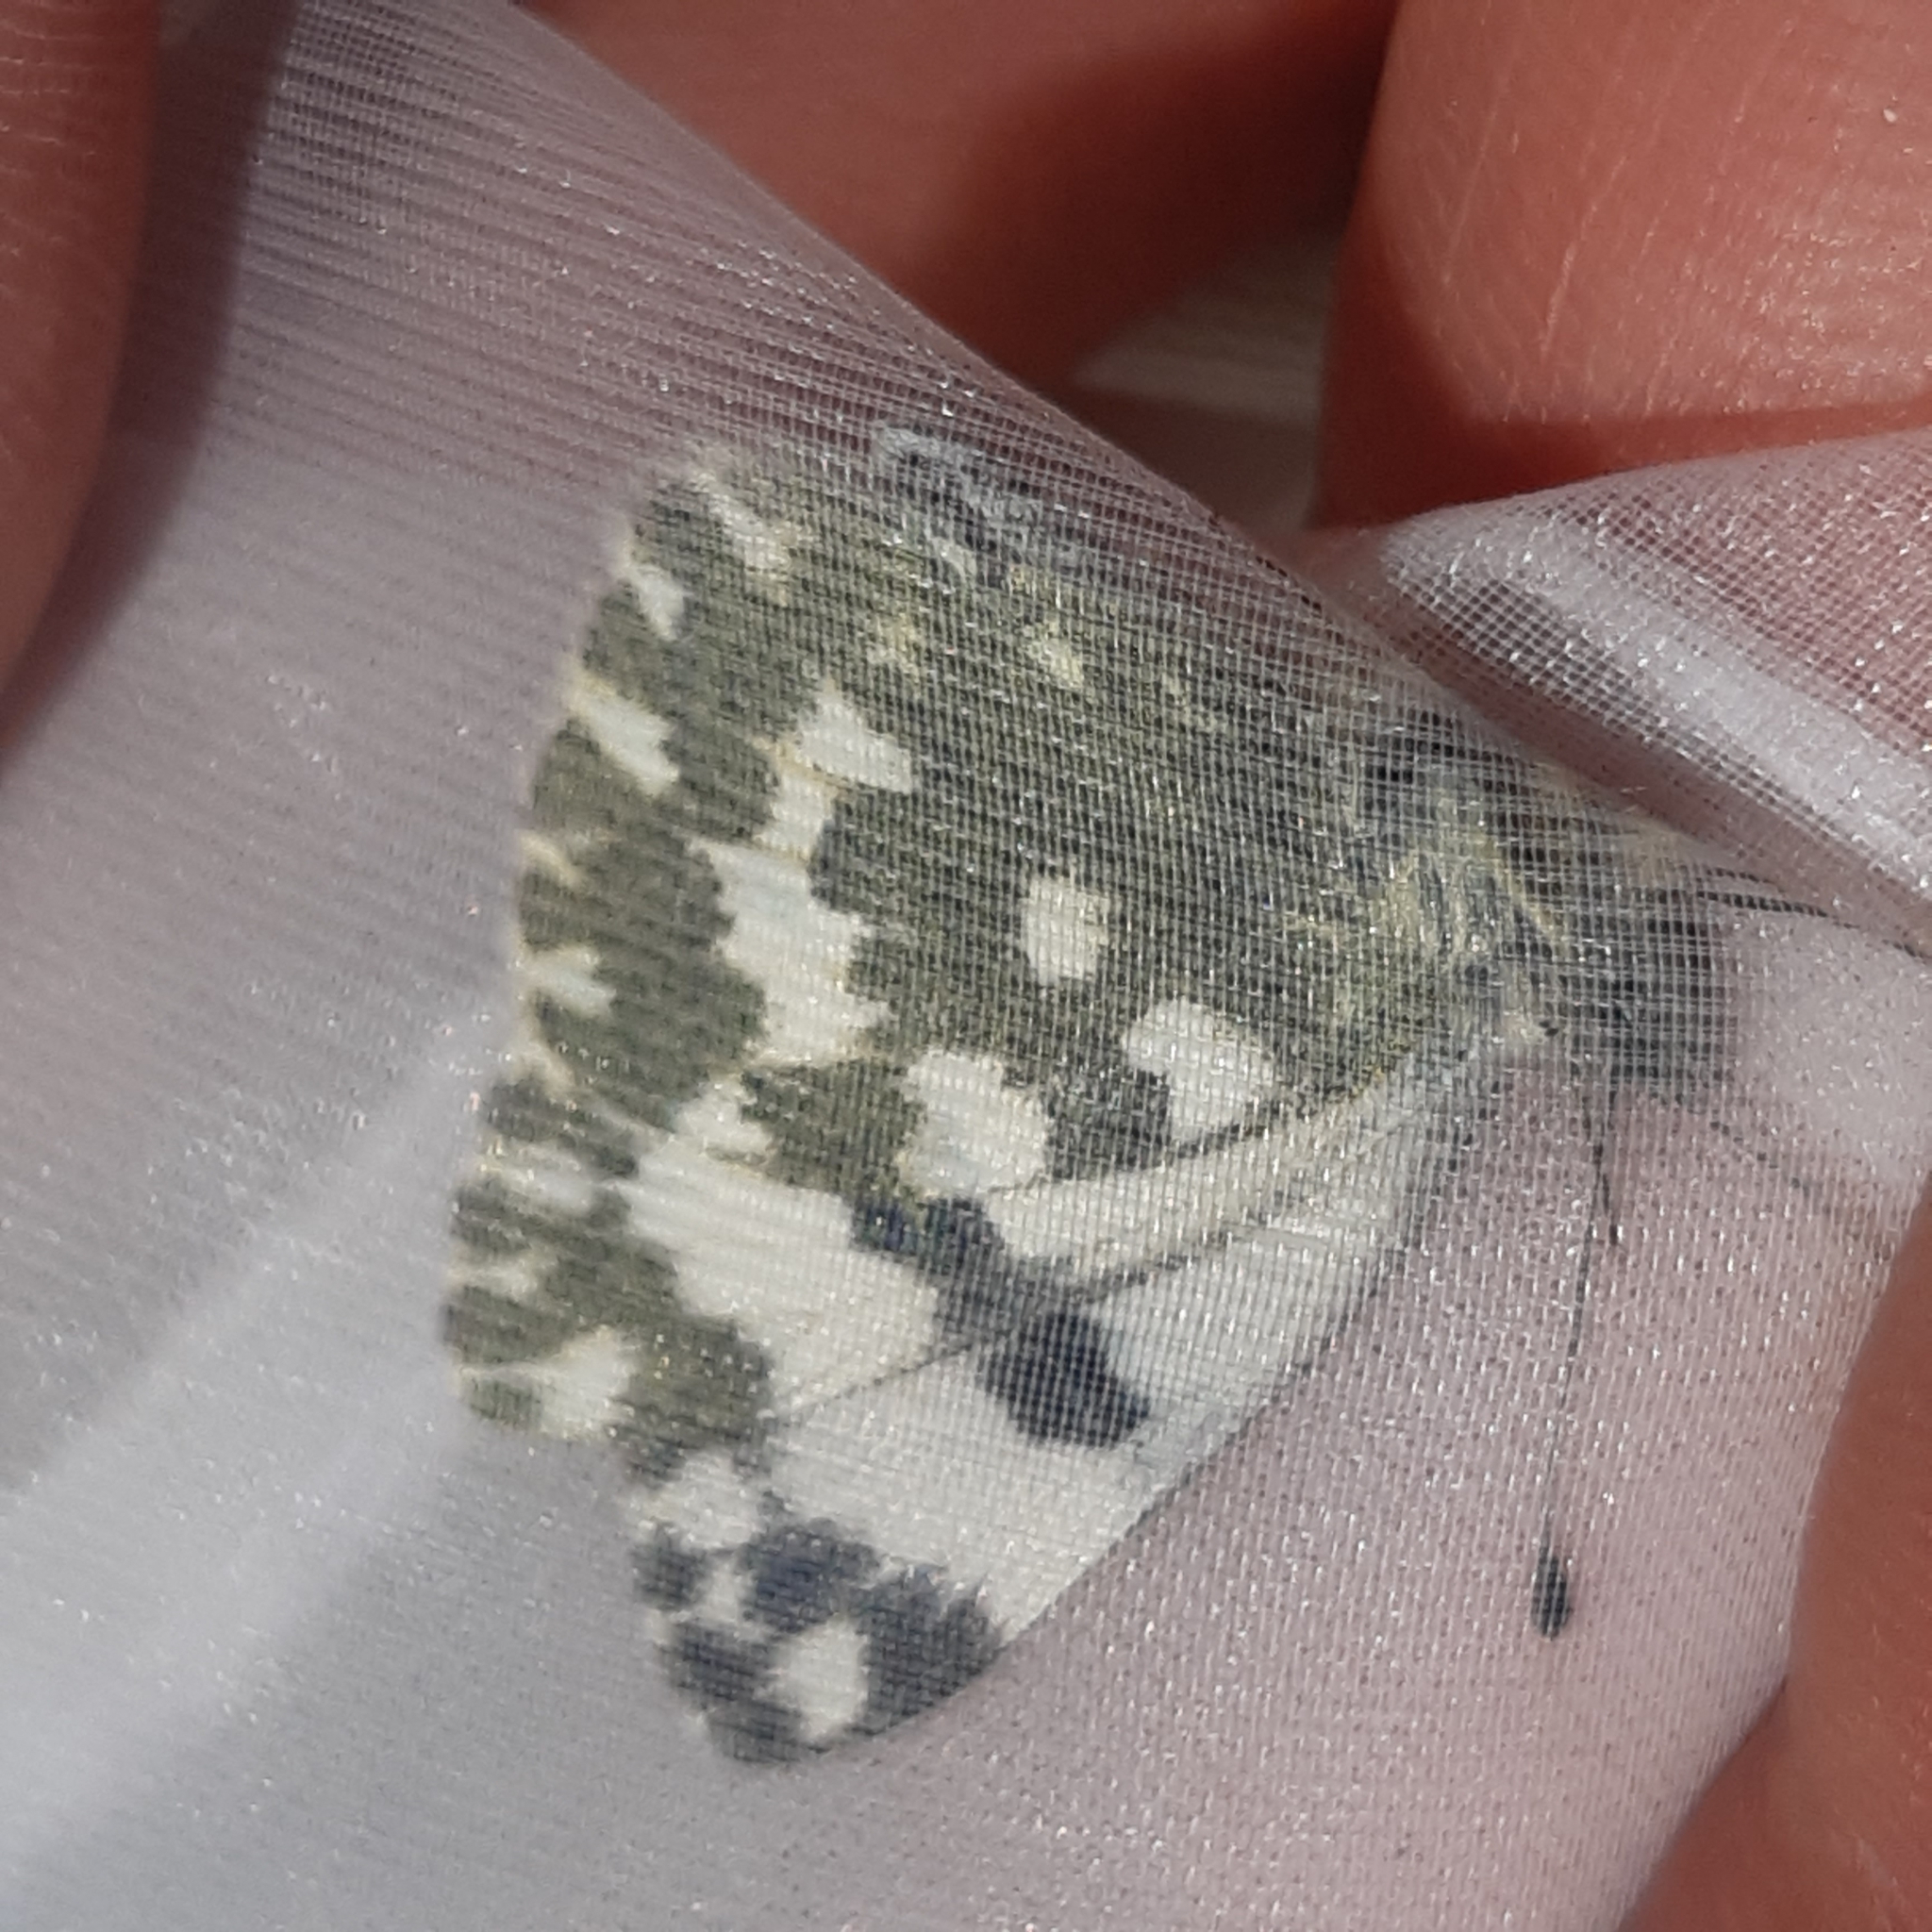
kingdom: Animalia
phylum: Arthropoda
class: Insecta
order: Lepidoptera
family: Pieridae
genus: Pontia
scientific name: Pontia daplidice
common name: Bath white
